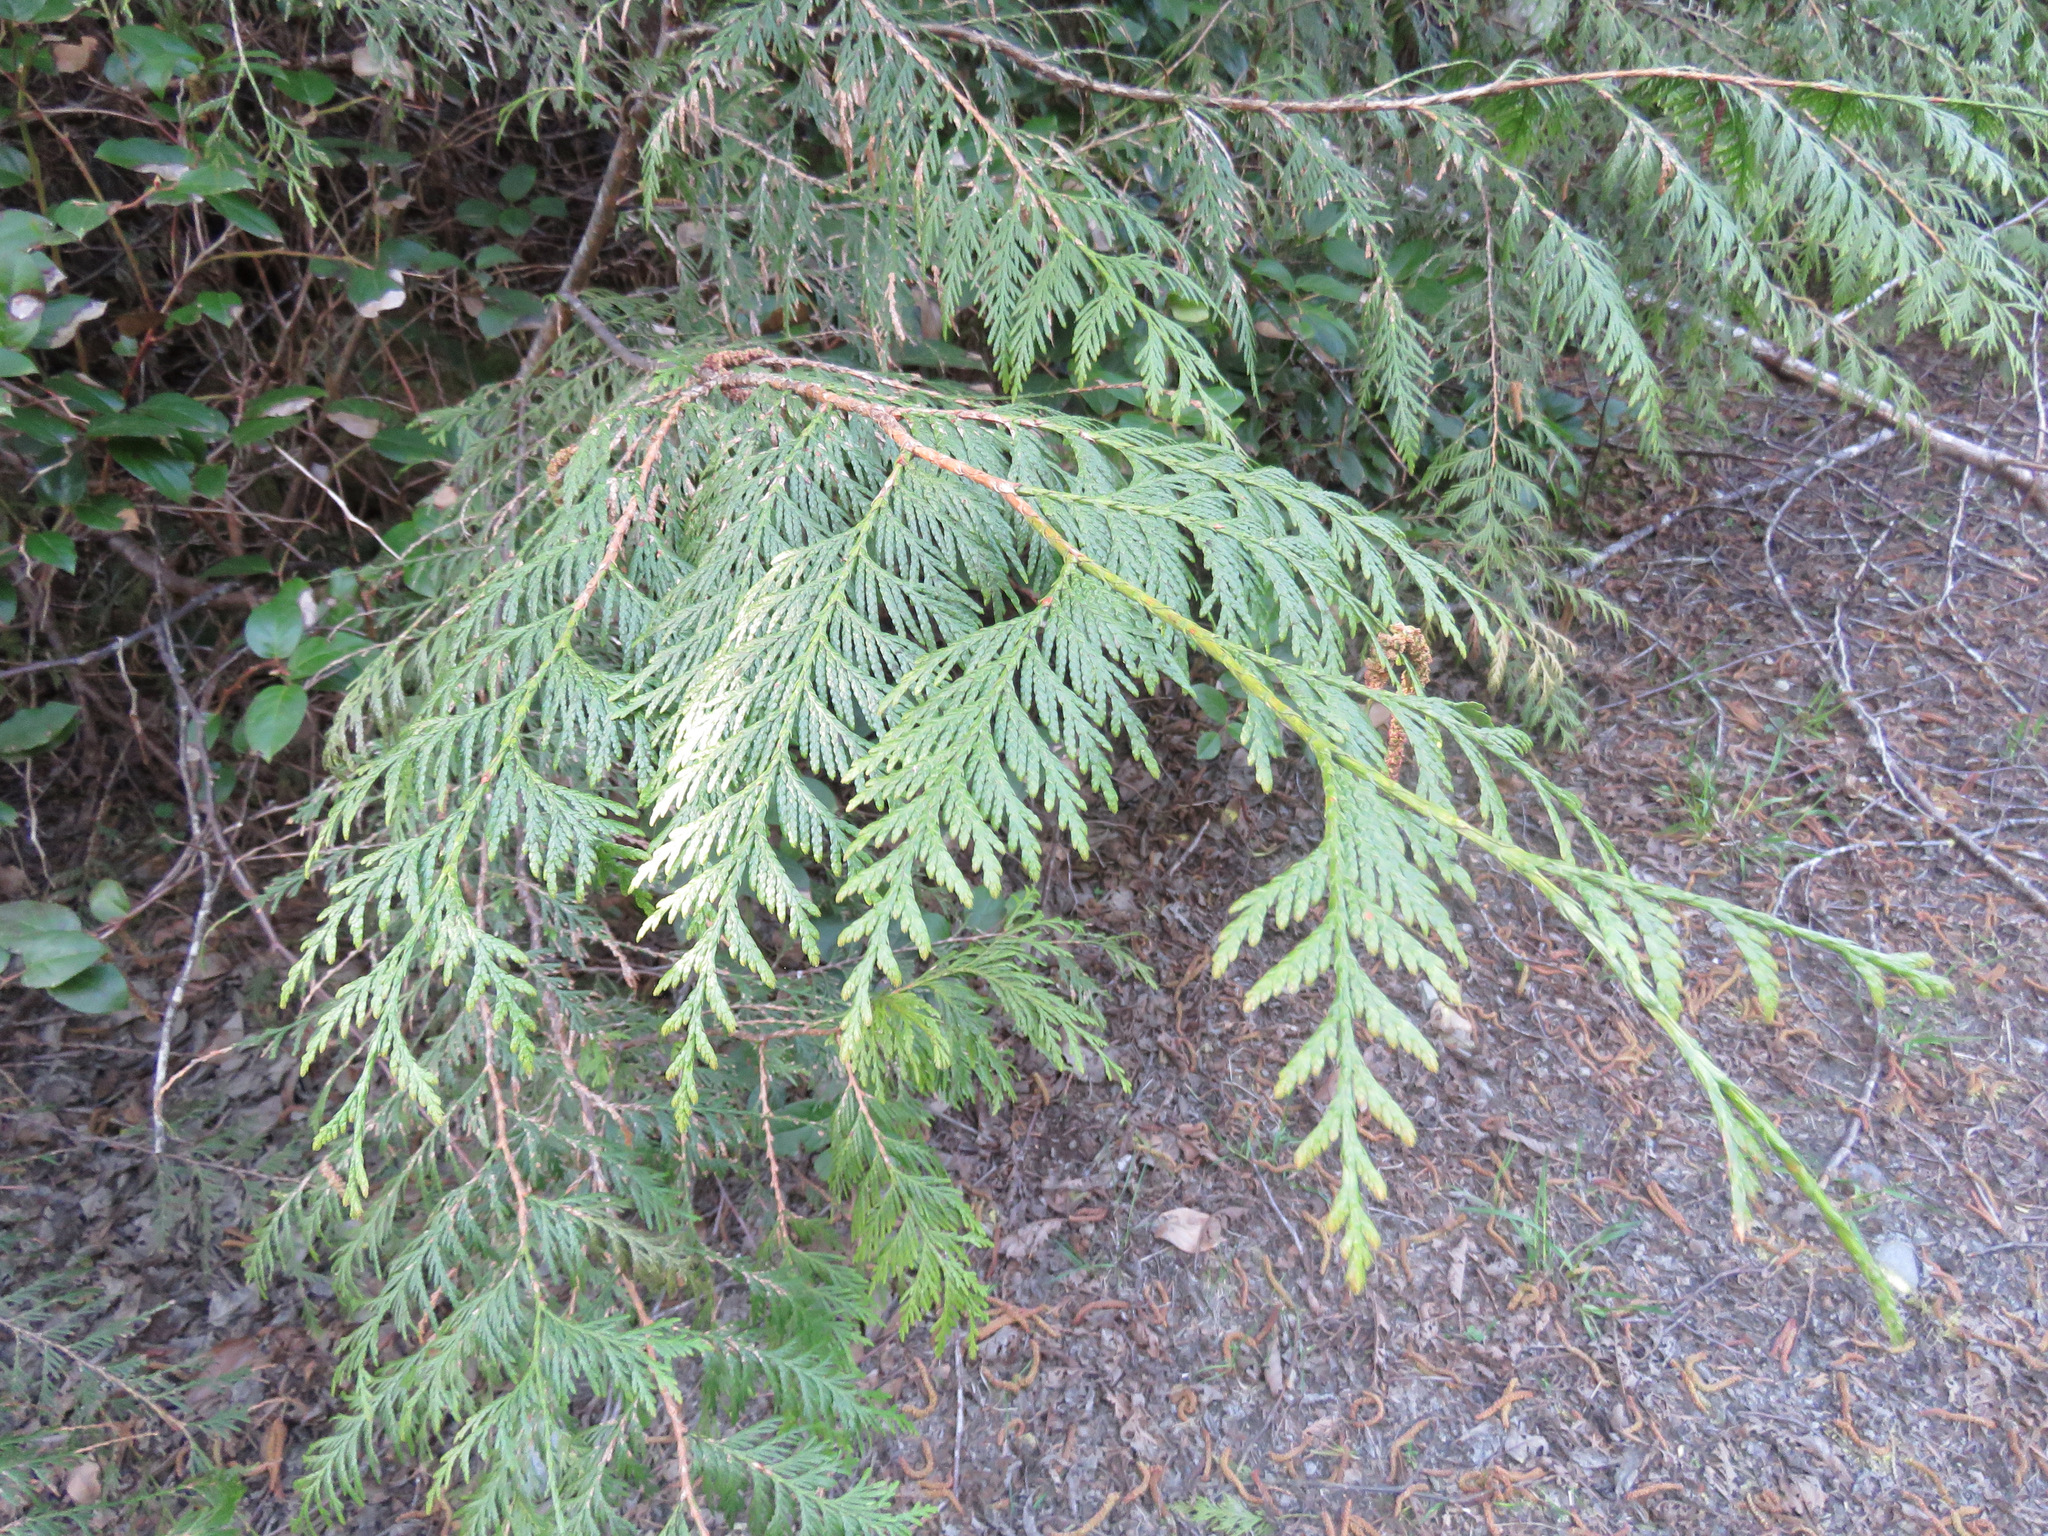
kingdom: Plantae
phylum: Tracheophyta
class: Pinopsida
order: Pinales
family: Cupressaceae
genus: Thuja
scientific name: Thuja plicata
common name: Western red-cedar
